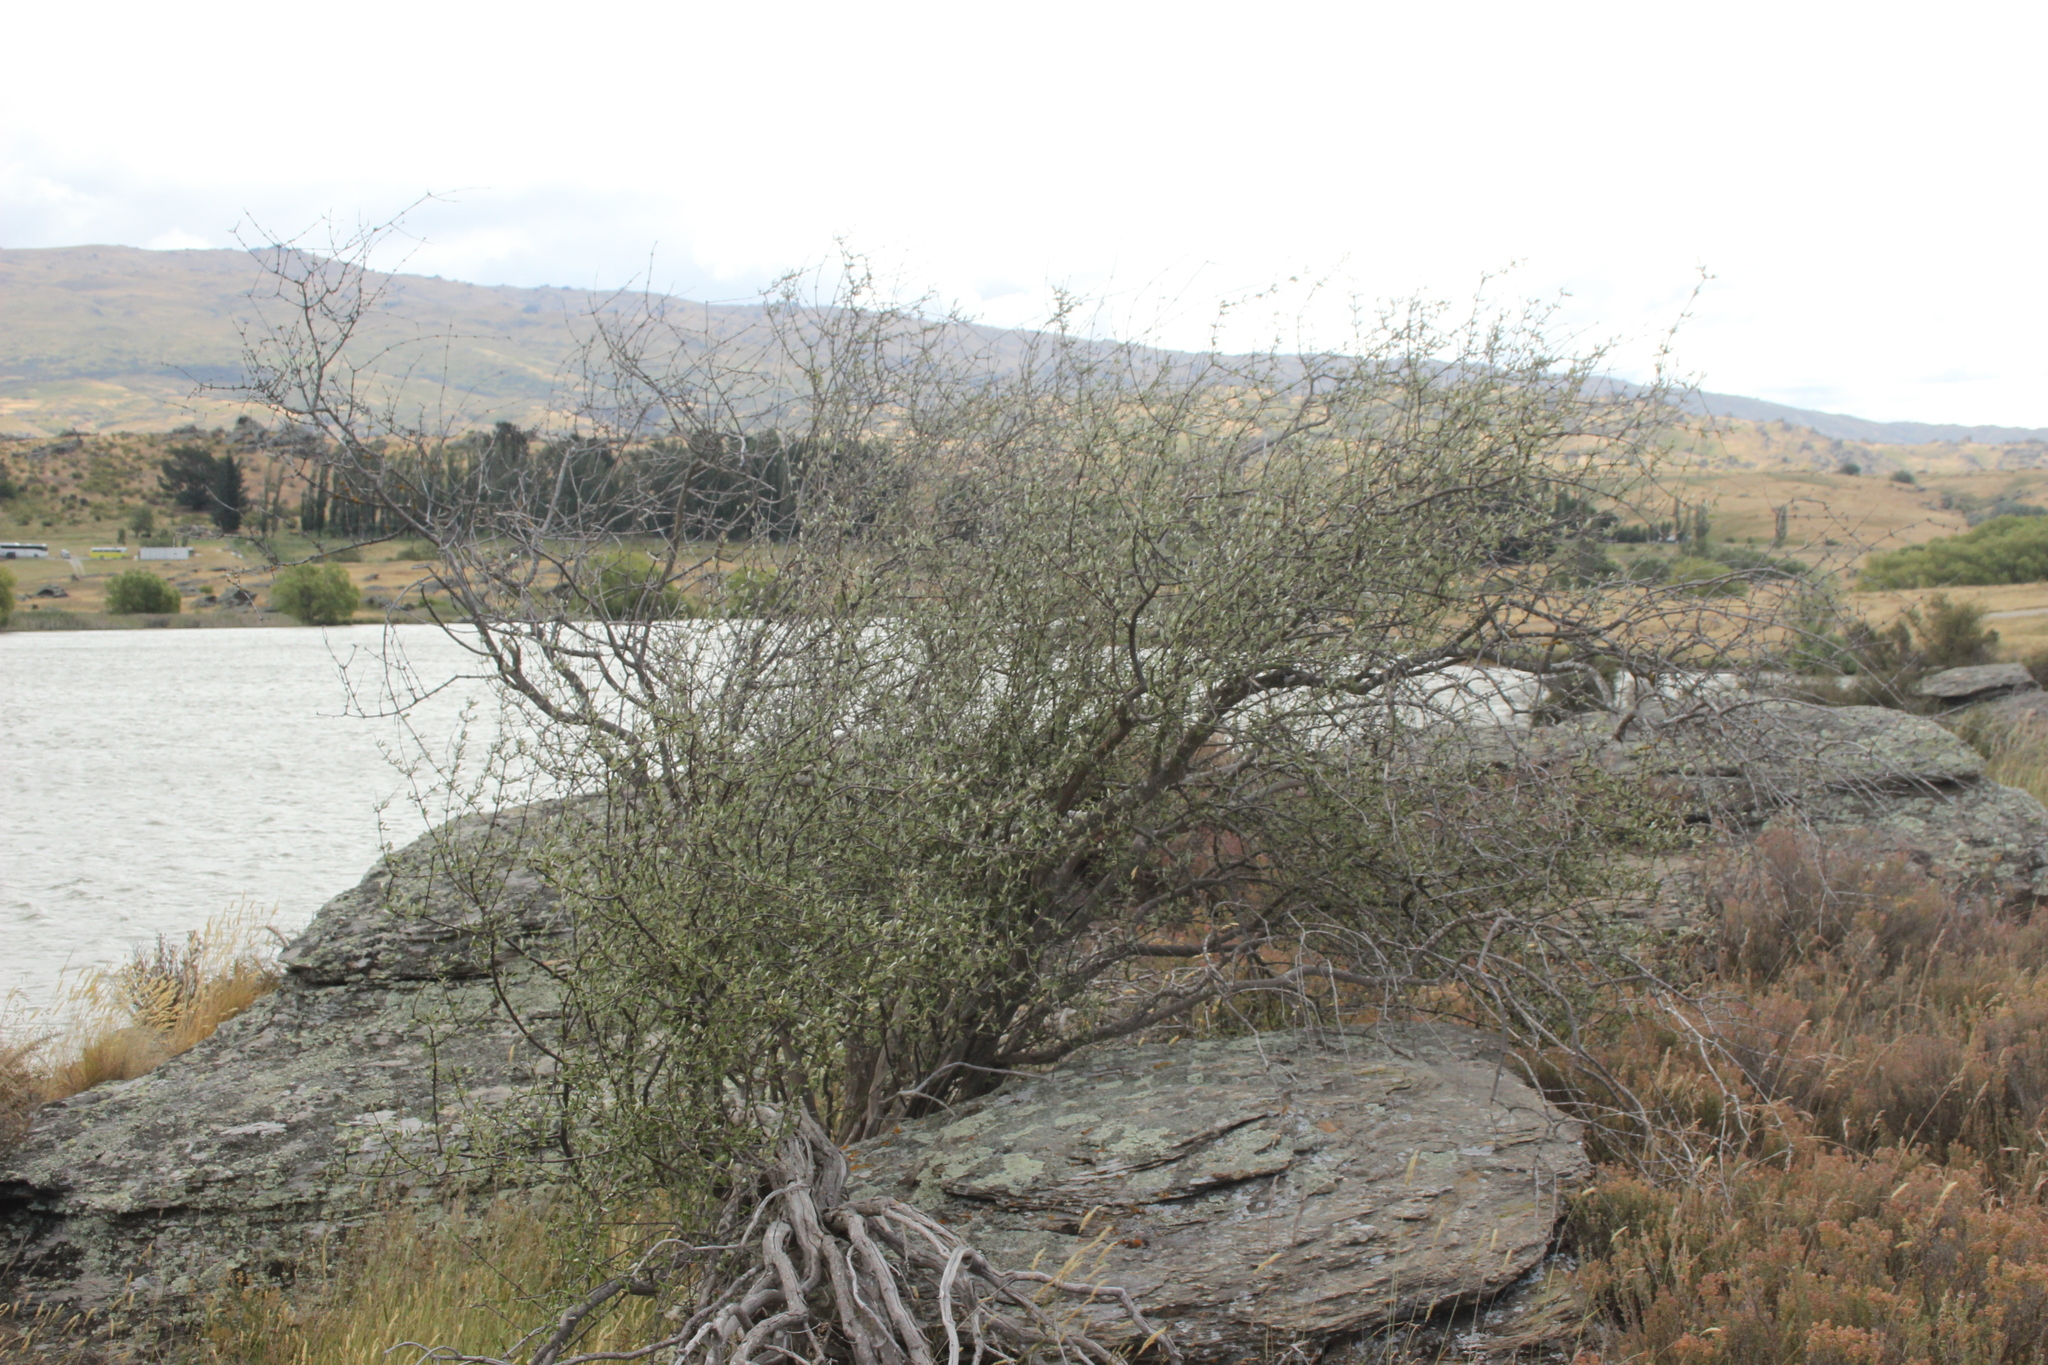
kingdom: Plantae
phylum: Tracheophyta
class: Magnoliopsida
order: Asterales
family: Asteraceae
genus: Olearia
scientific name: Olearia odorata
